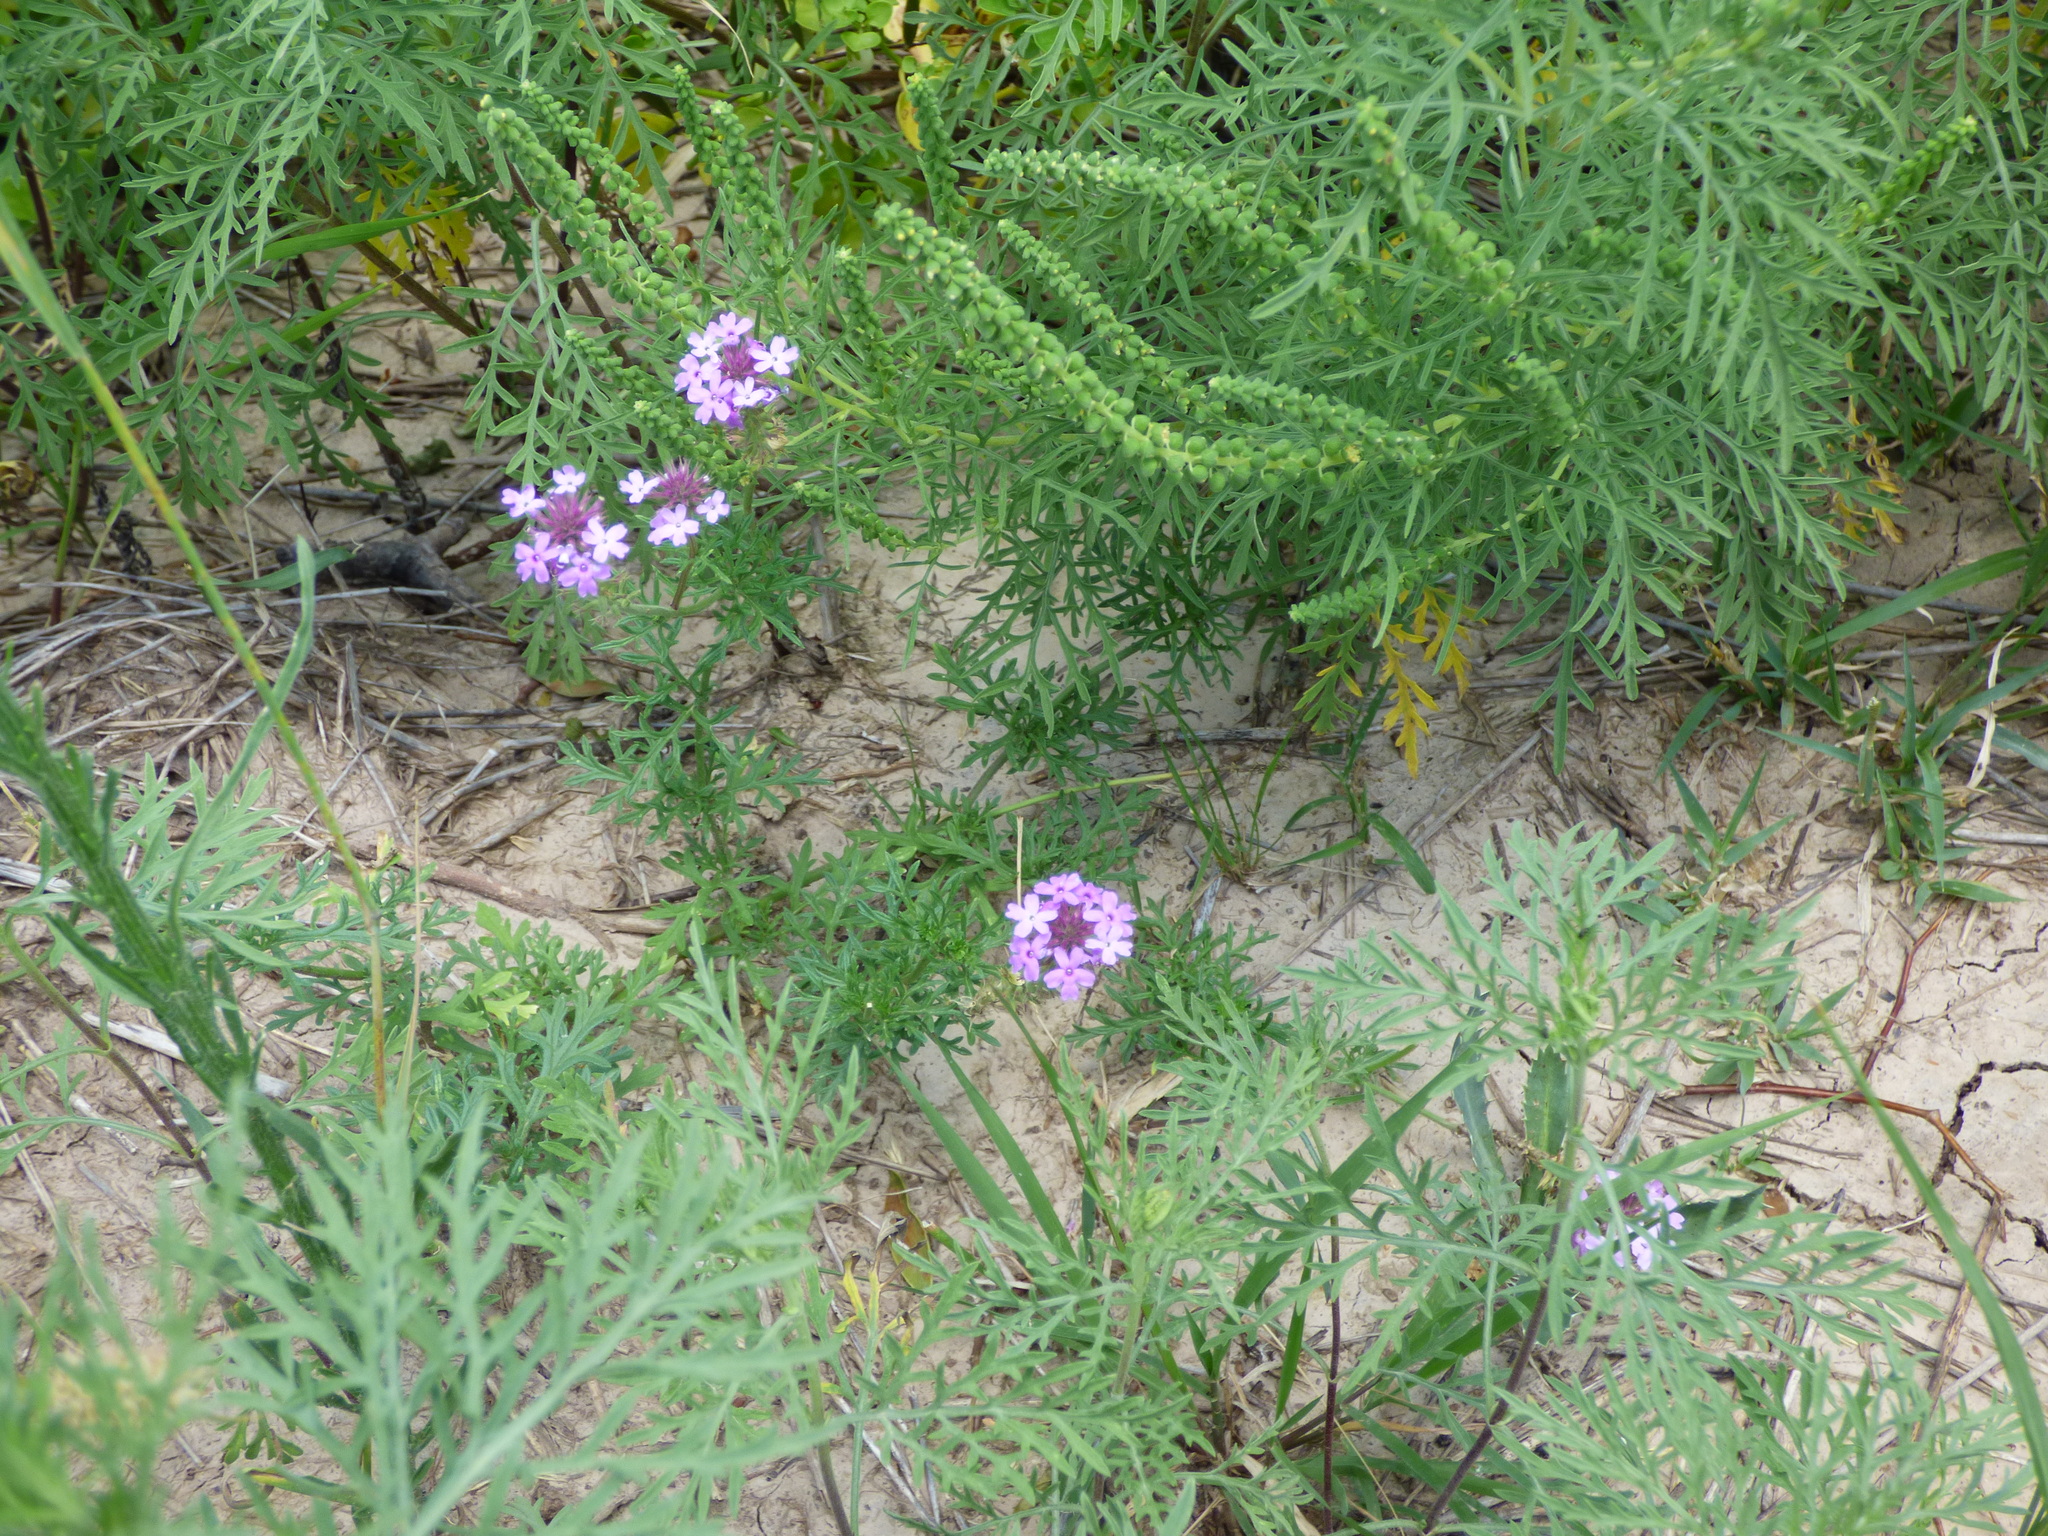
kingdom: Plantae
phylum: Tracheophyta
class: Magnoliopsida
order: Lamiales
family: Verbenaceae
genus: Verbena
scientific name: Verbena tenera
